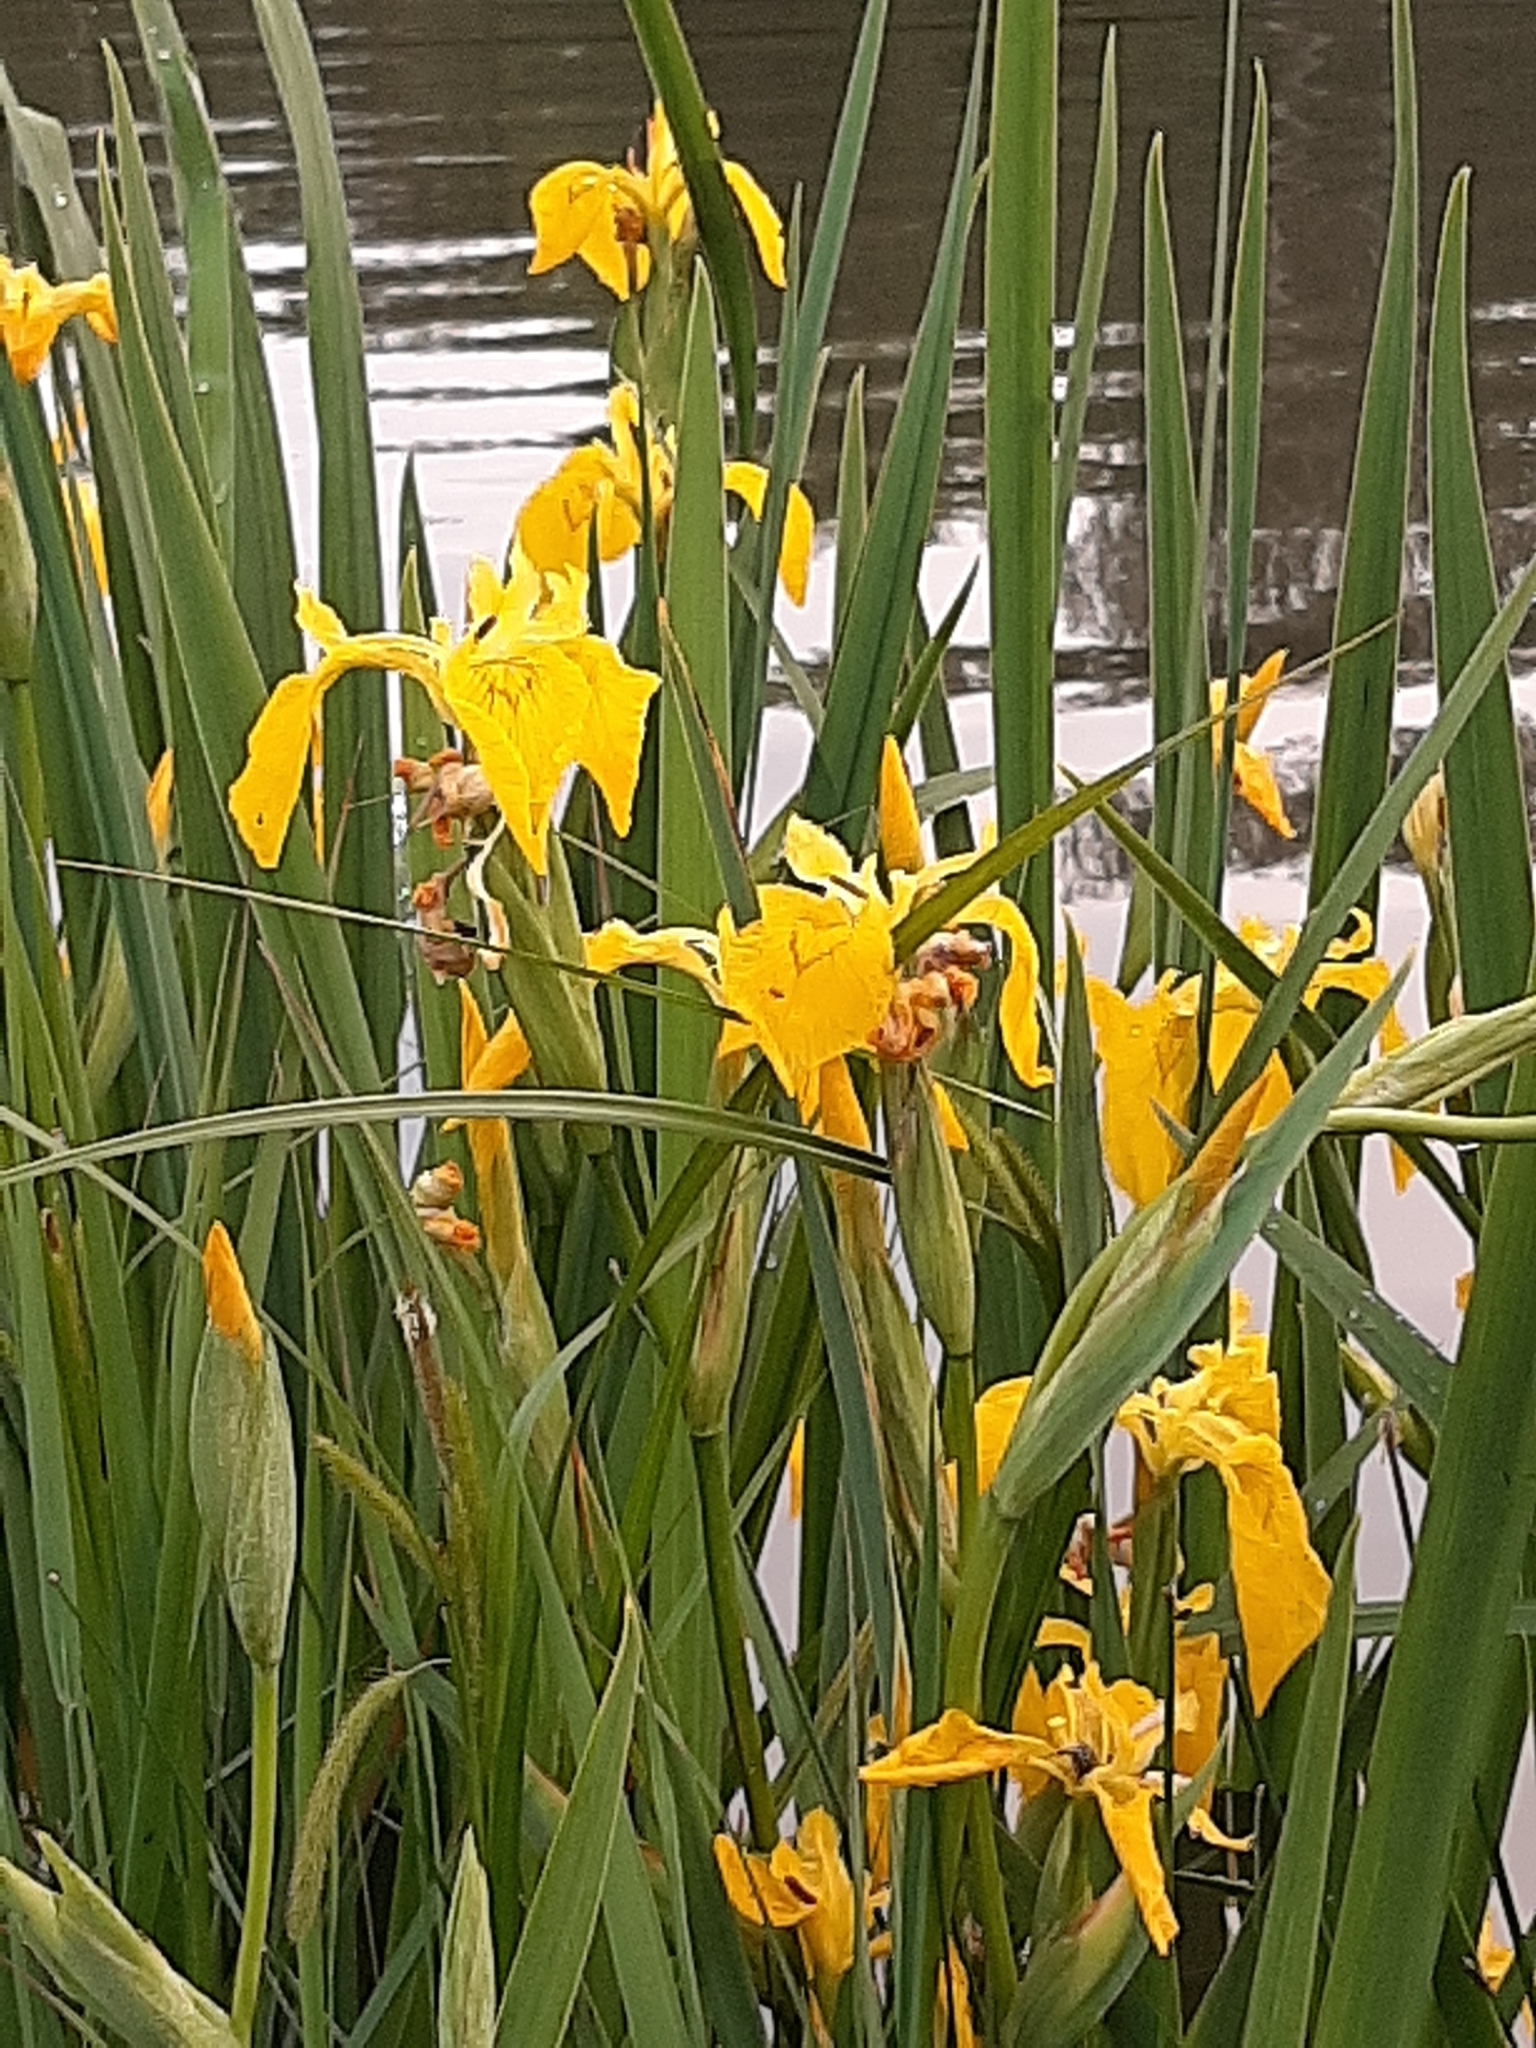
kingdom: Plantae
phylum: Tracheophyta
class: Liliopsida
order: Asparagales
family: Iridaceae
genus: Iris
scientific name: Iris pseudacorus
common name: Yellow flag
